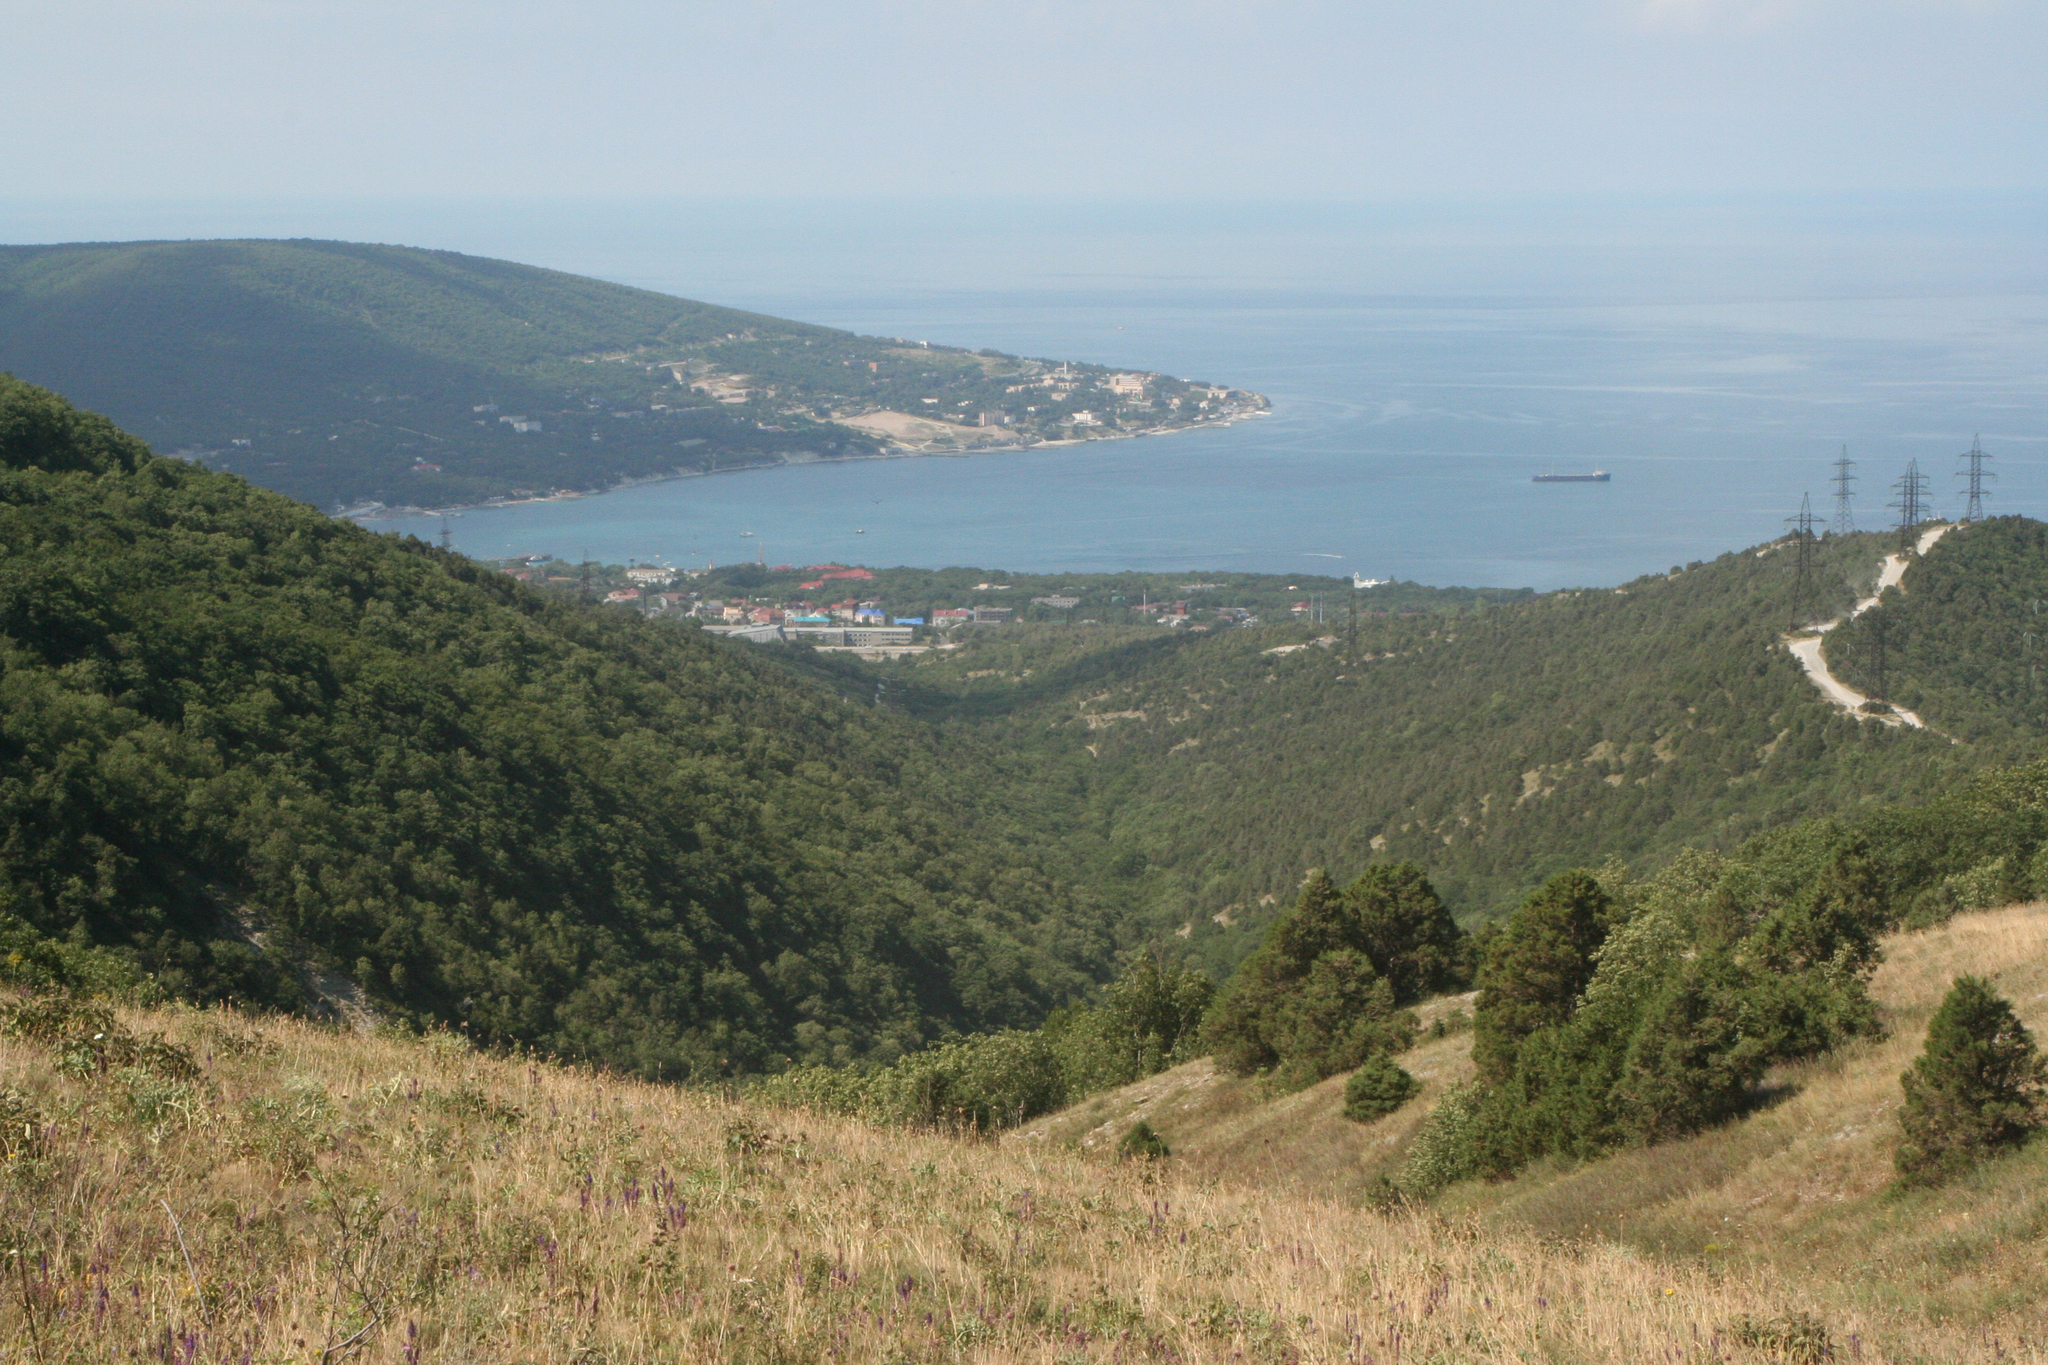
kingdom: Plantae
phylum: Tracheophyta
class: Pinopsida
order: Pinales
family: Cupressaceae
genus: Juniperus
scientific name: Juniperus excelsa
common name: Crimean juniper
